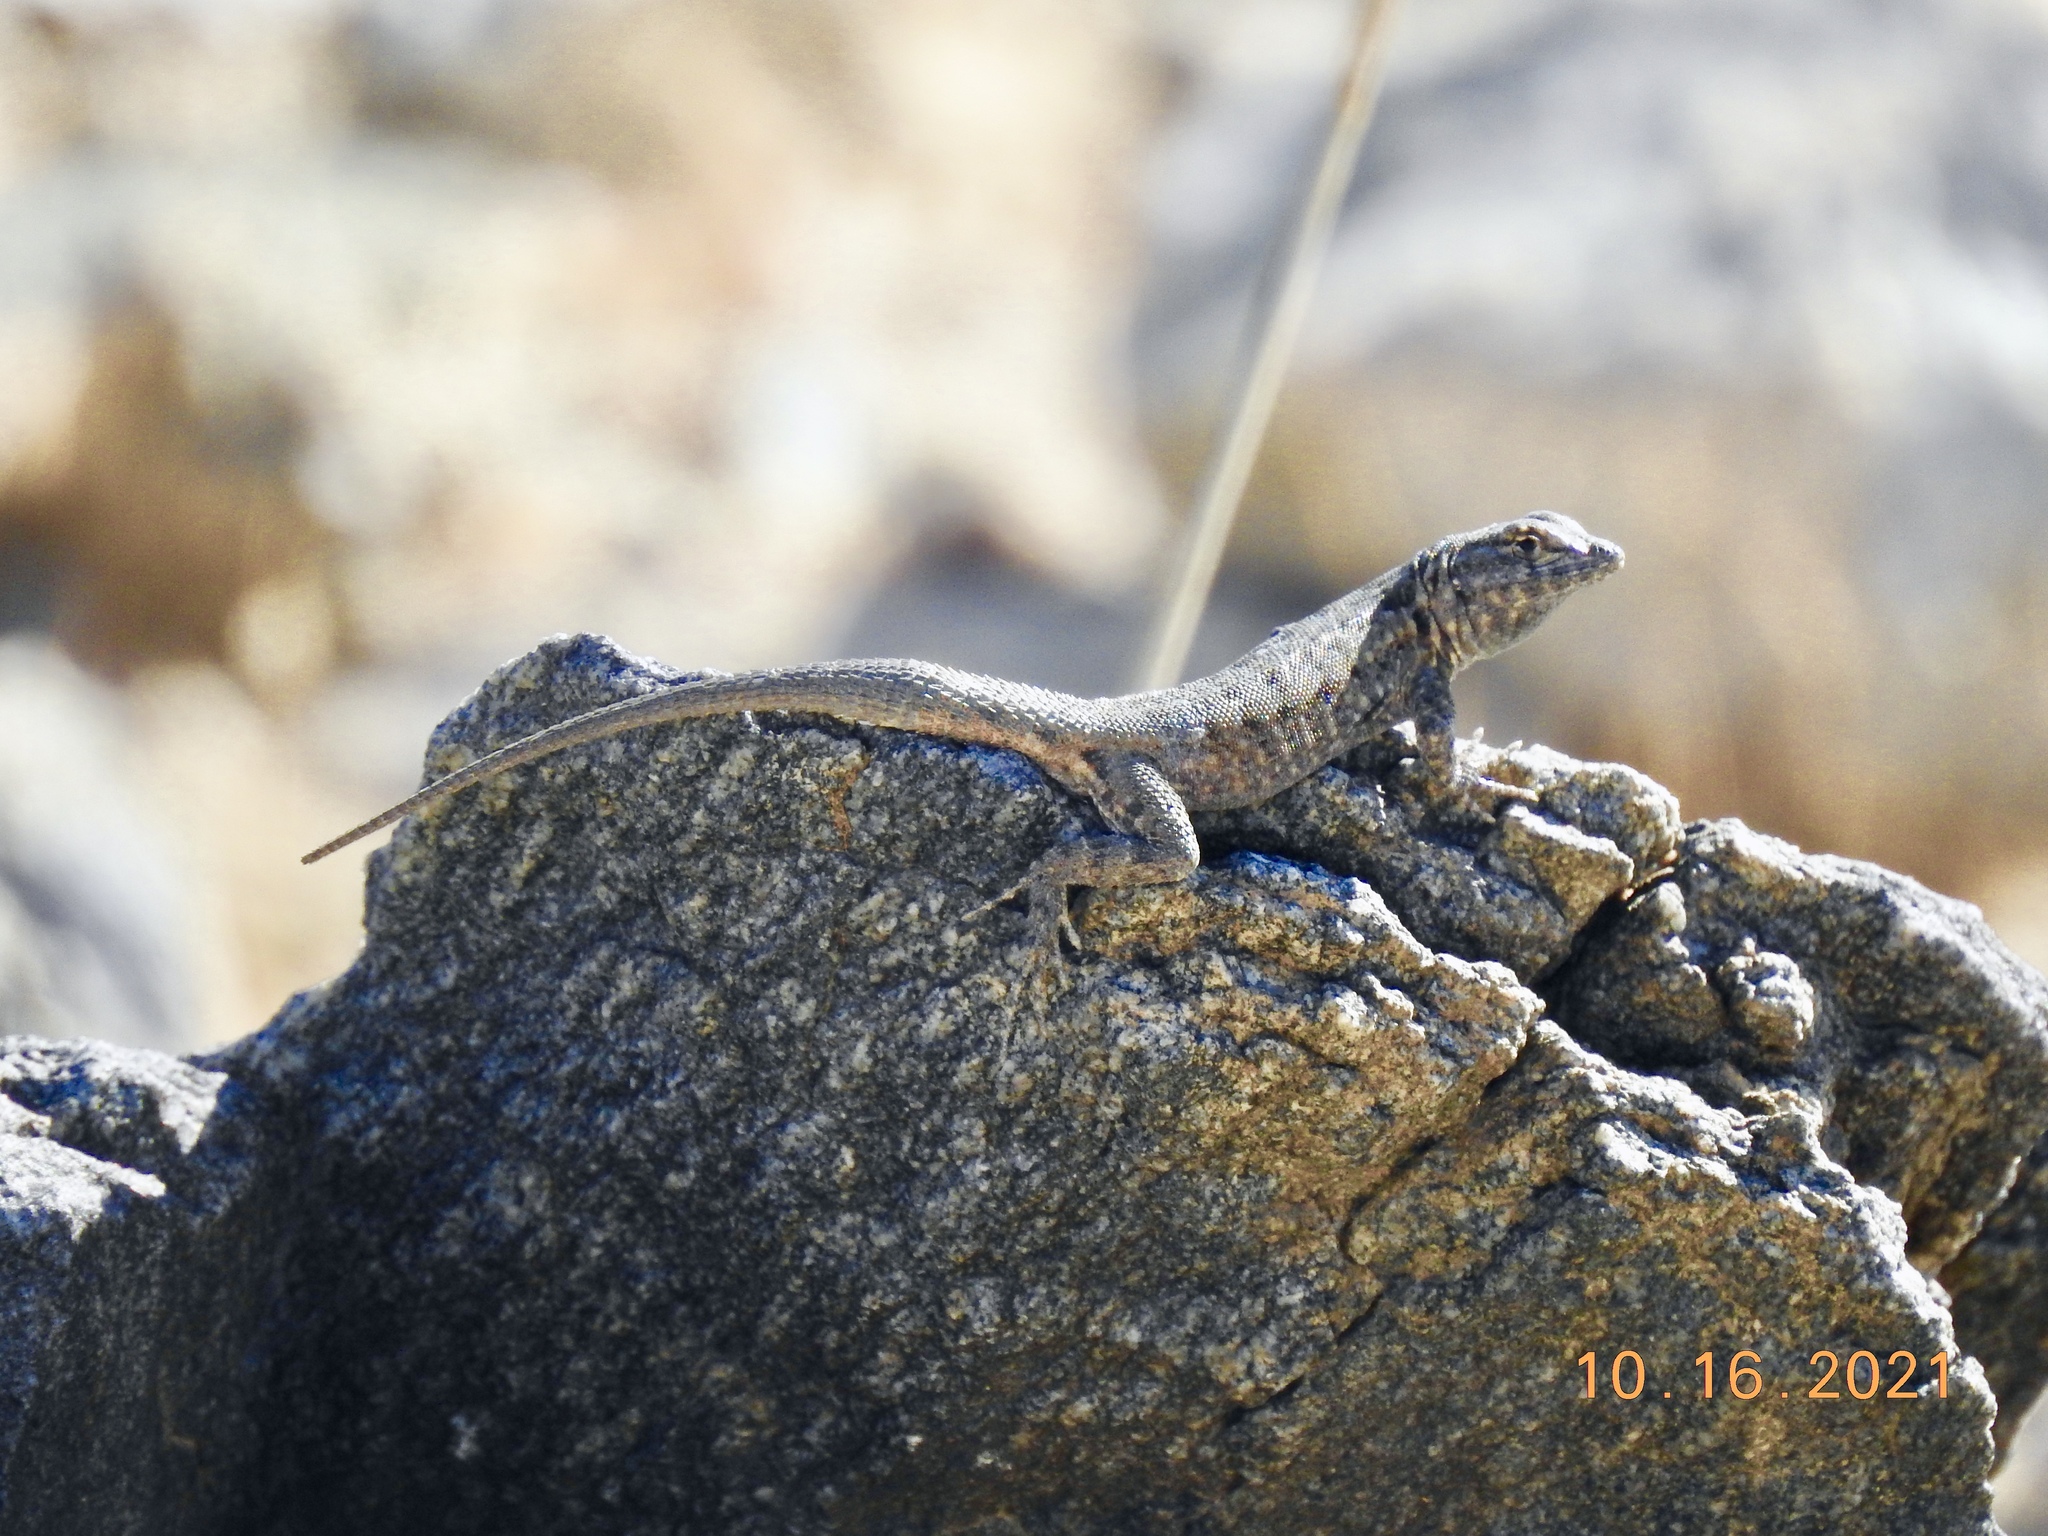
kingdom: Animalia
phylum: Chordata
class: Squamata
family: Phrynosomatidae
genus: Uta
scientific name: Uta stansburiana
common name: Side-blotched lizard
